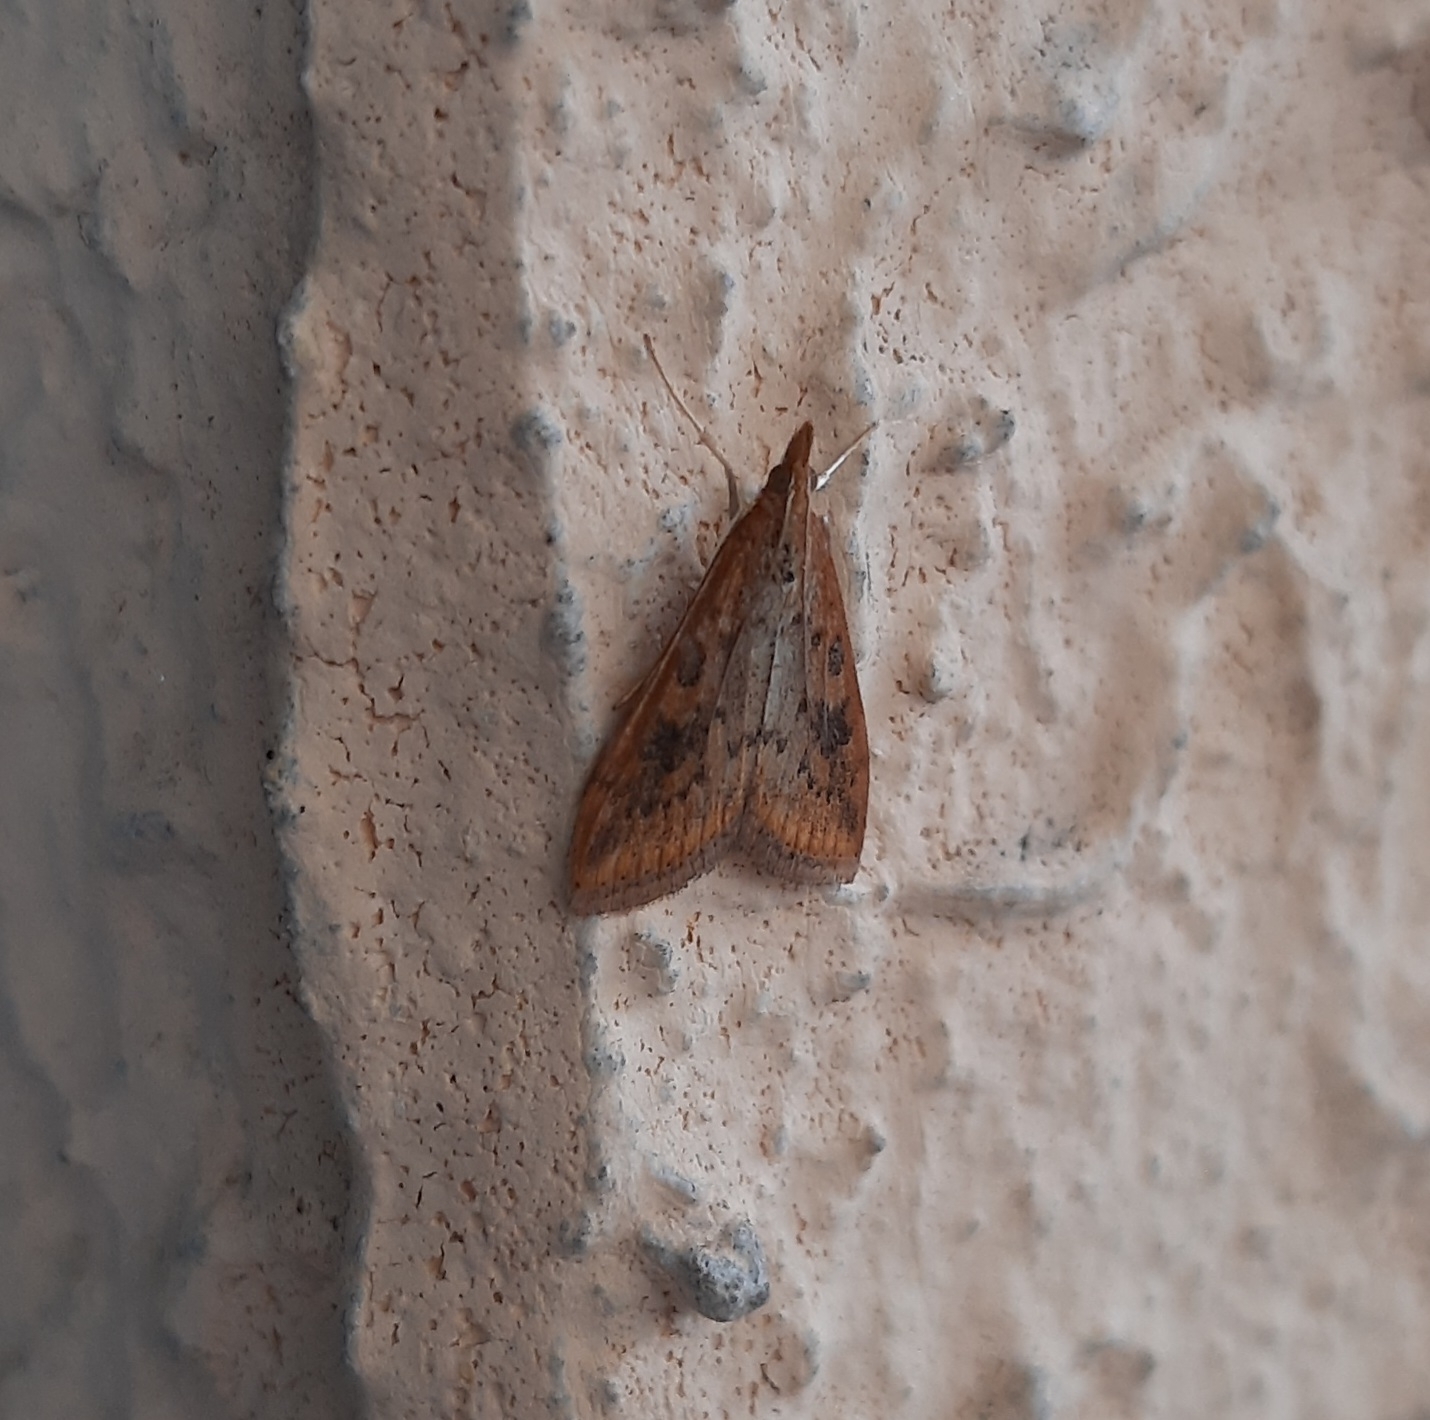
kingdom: Animalia
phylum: Arthropoda
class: Insecta
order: Lepidoptera
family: Crambidae
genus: Udea
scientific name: Udea ferrugalis
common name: Rusty dot
